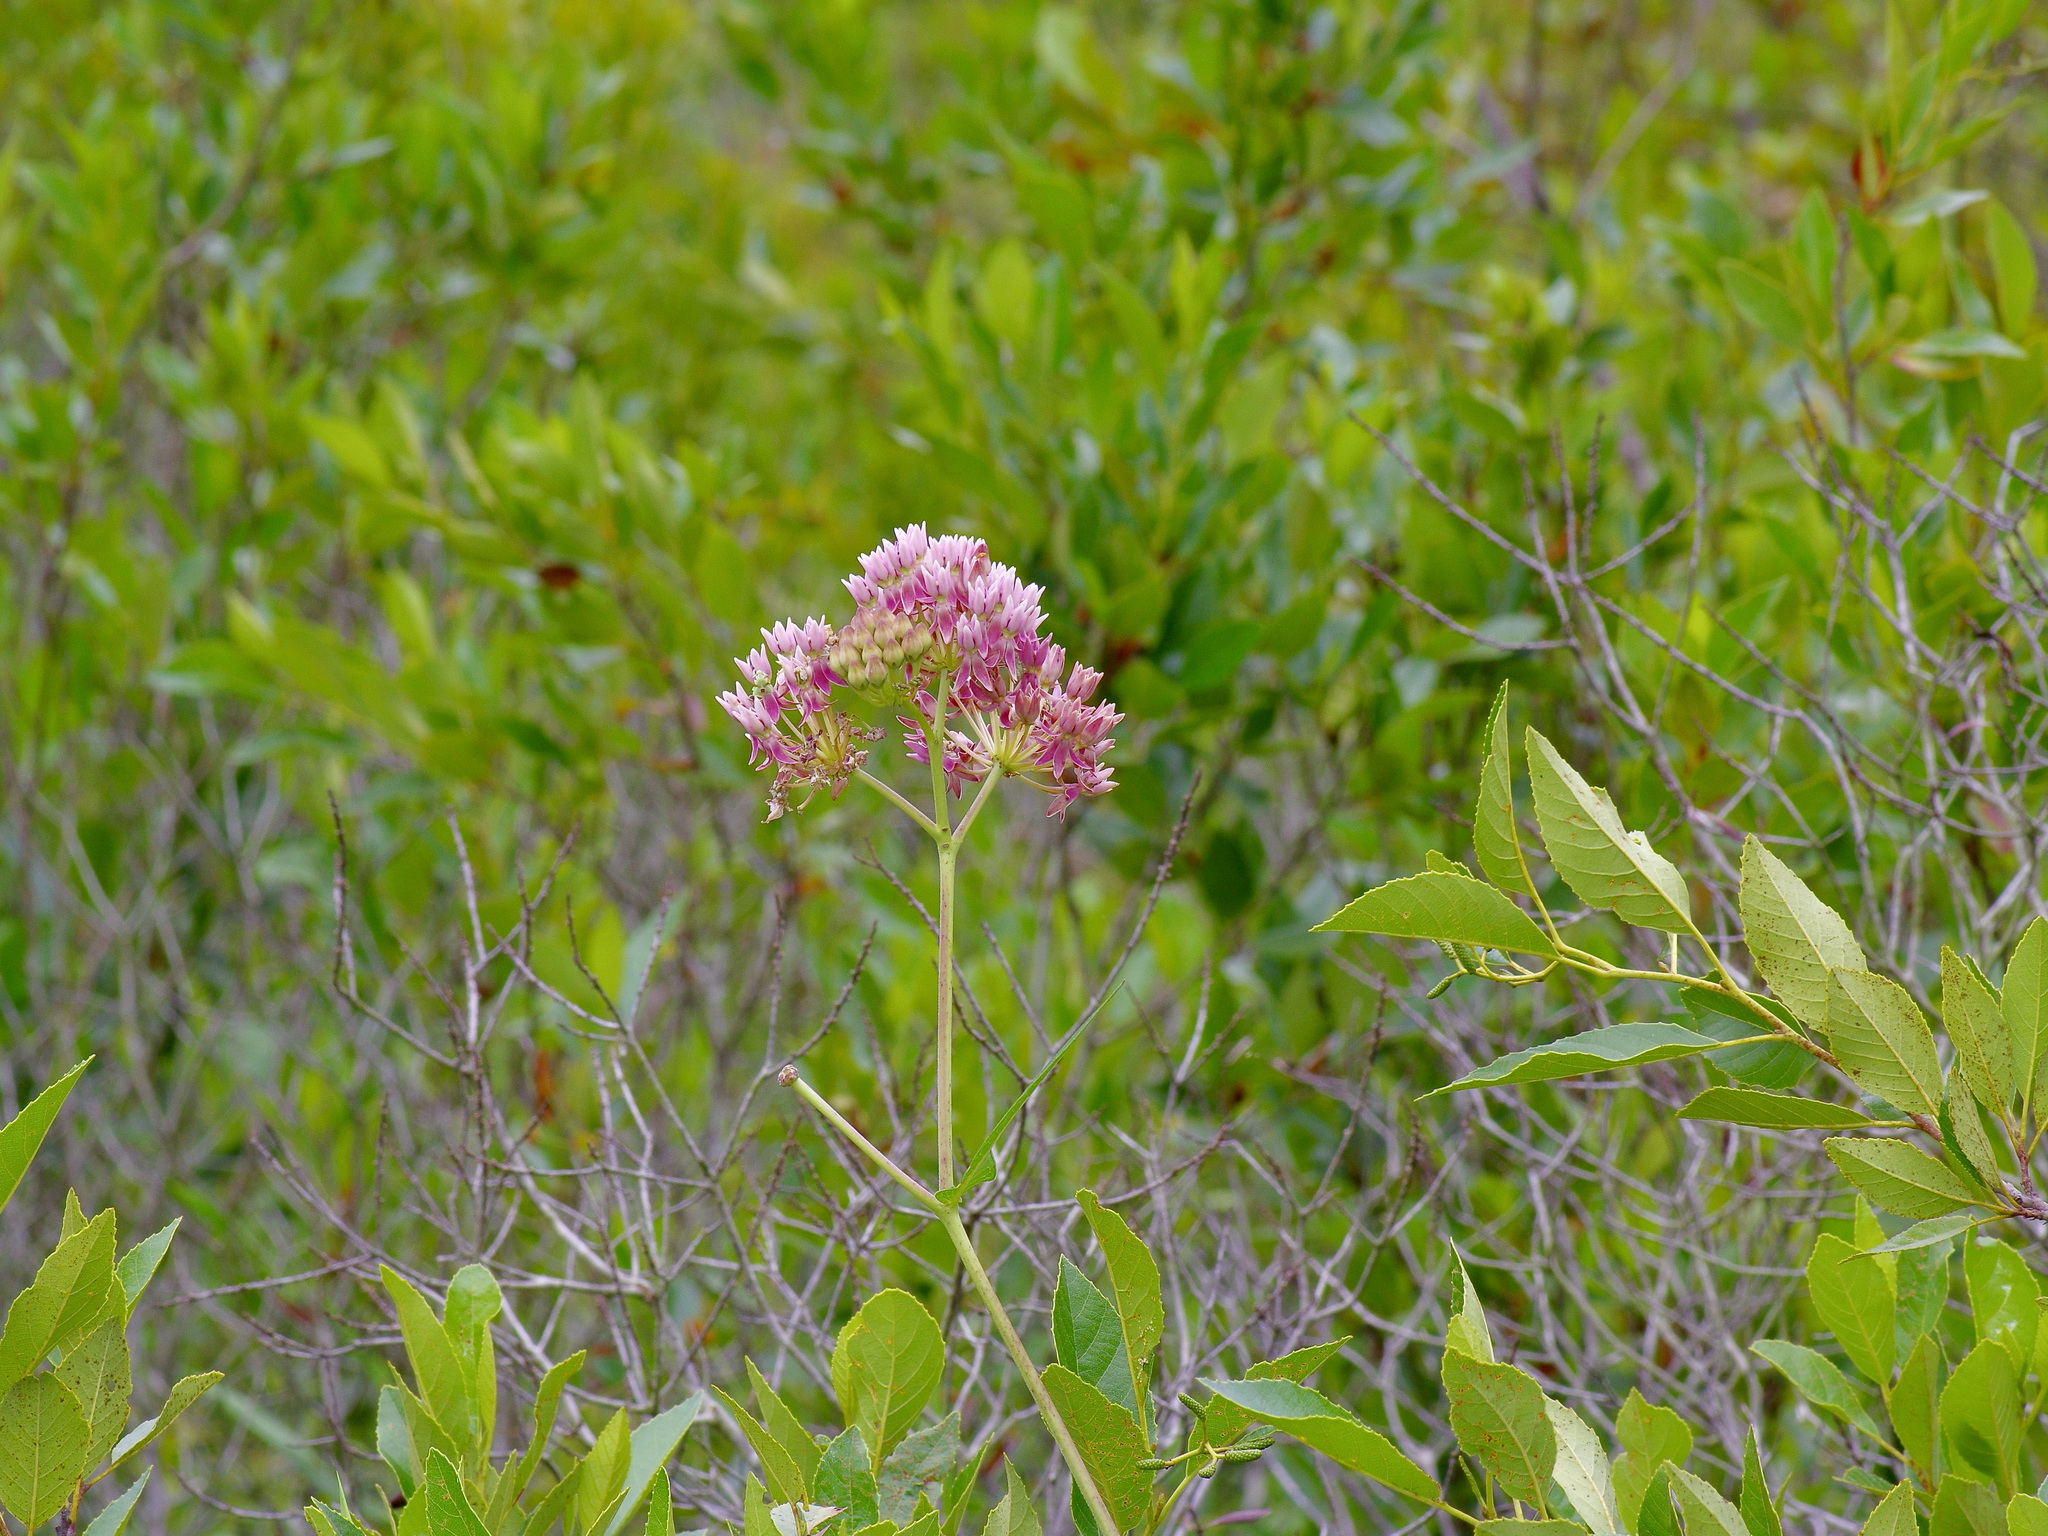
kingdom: Plantae
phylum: Tracheophyta
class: Magnoliopsida
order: Gentianales
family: Apocynaceae
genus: Asclepias
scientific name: Asclepias rubra
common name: Red milkweed
